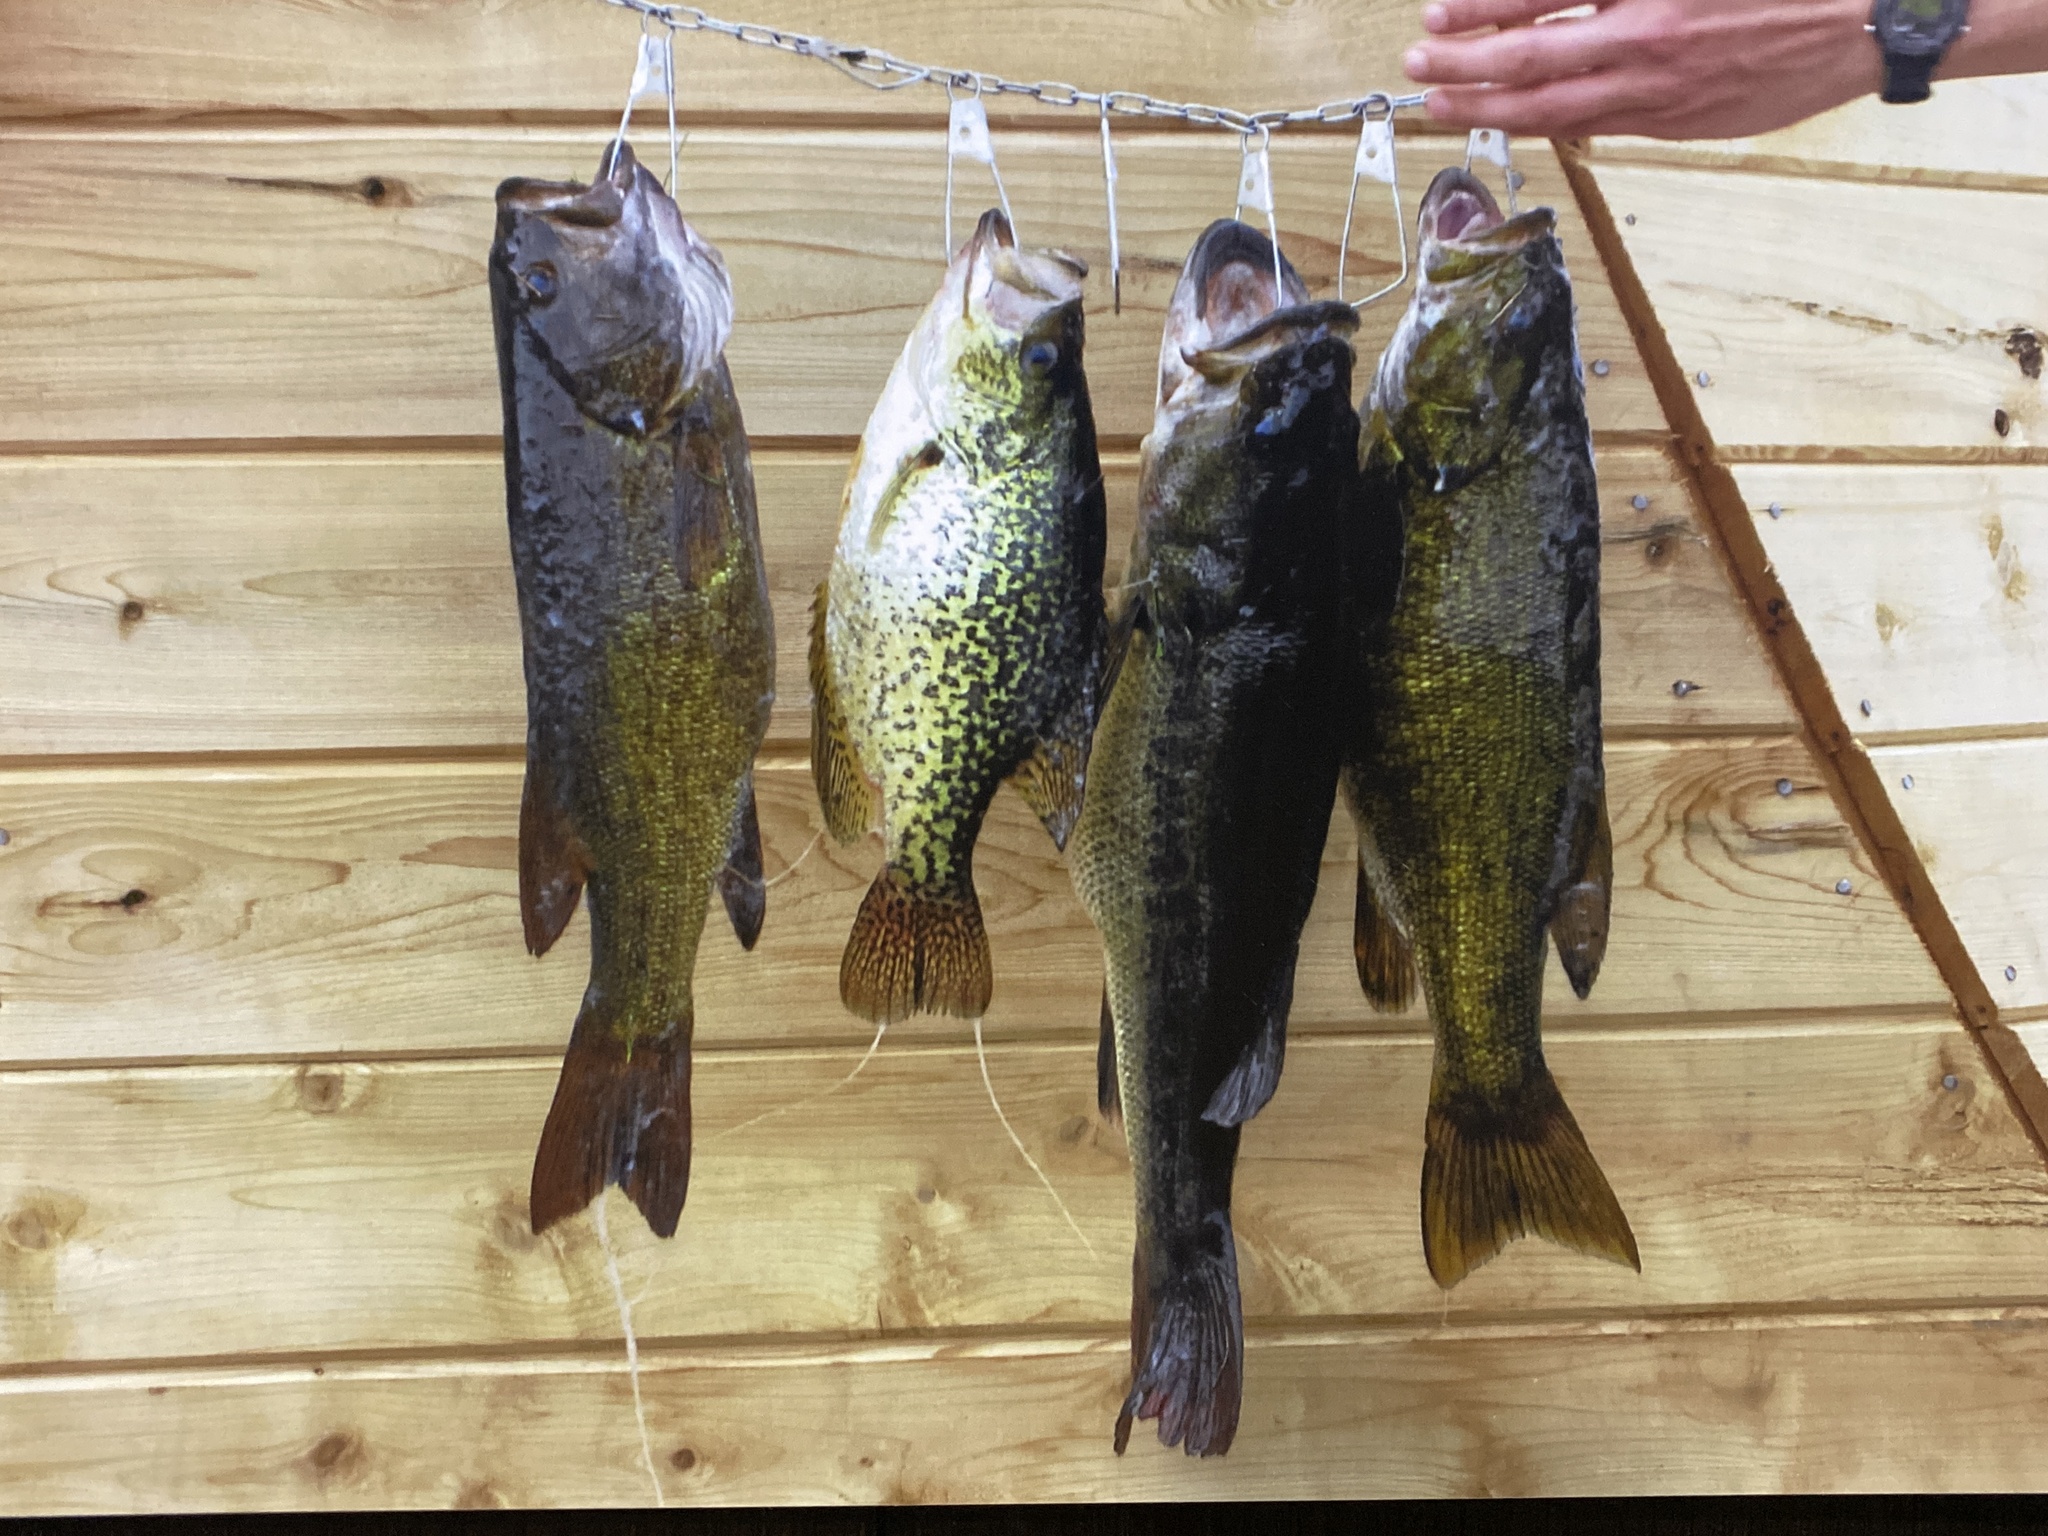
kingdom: Animalia
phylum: Chordata
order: Perciformes
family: Centrarchidae
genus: Micropterus
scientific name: Micropterus dolomieu
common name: Smallmouth bass
